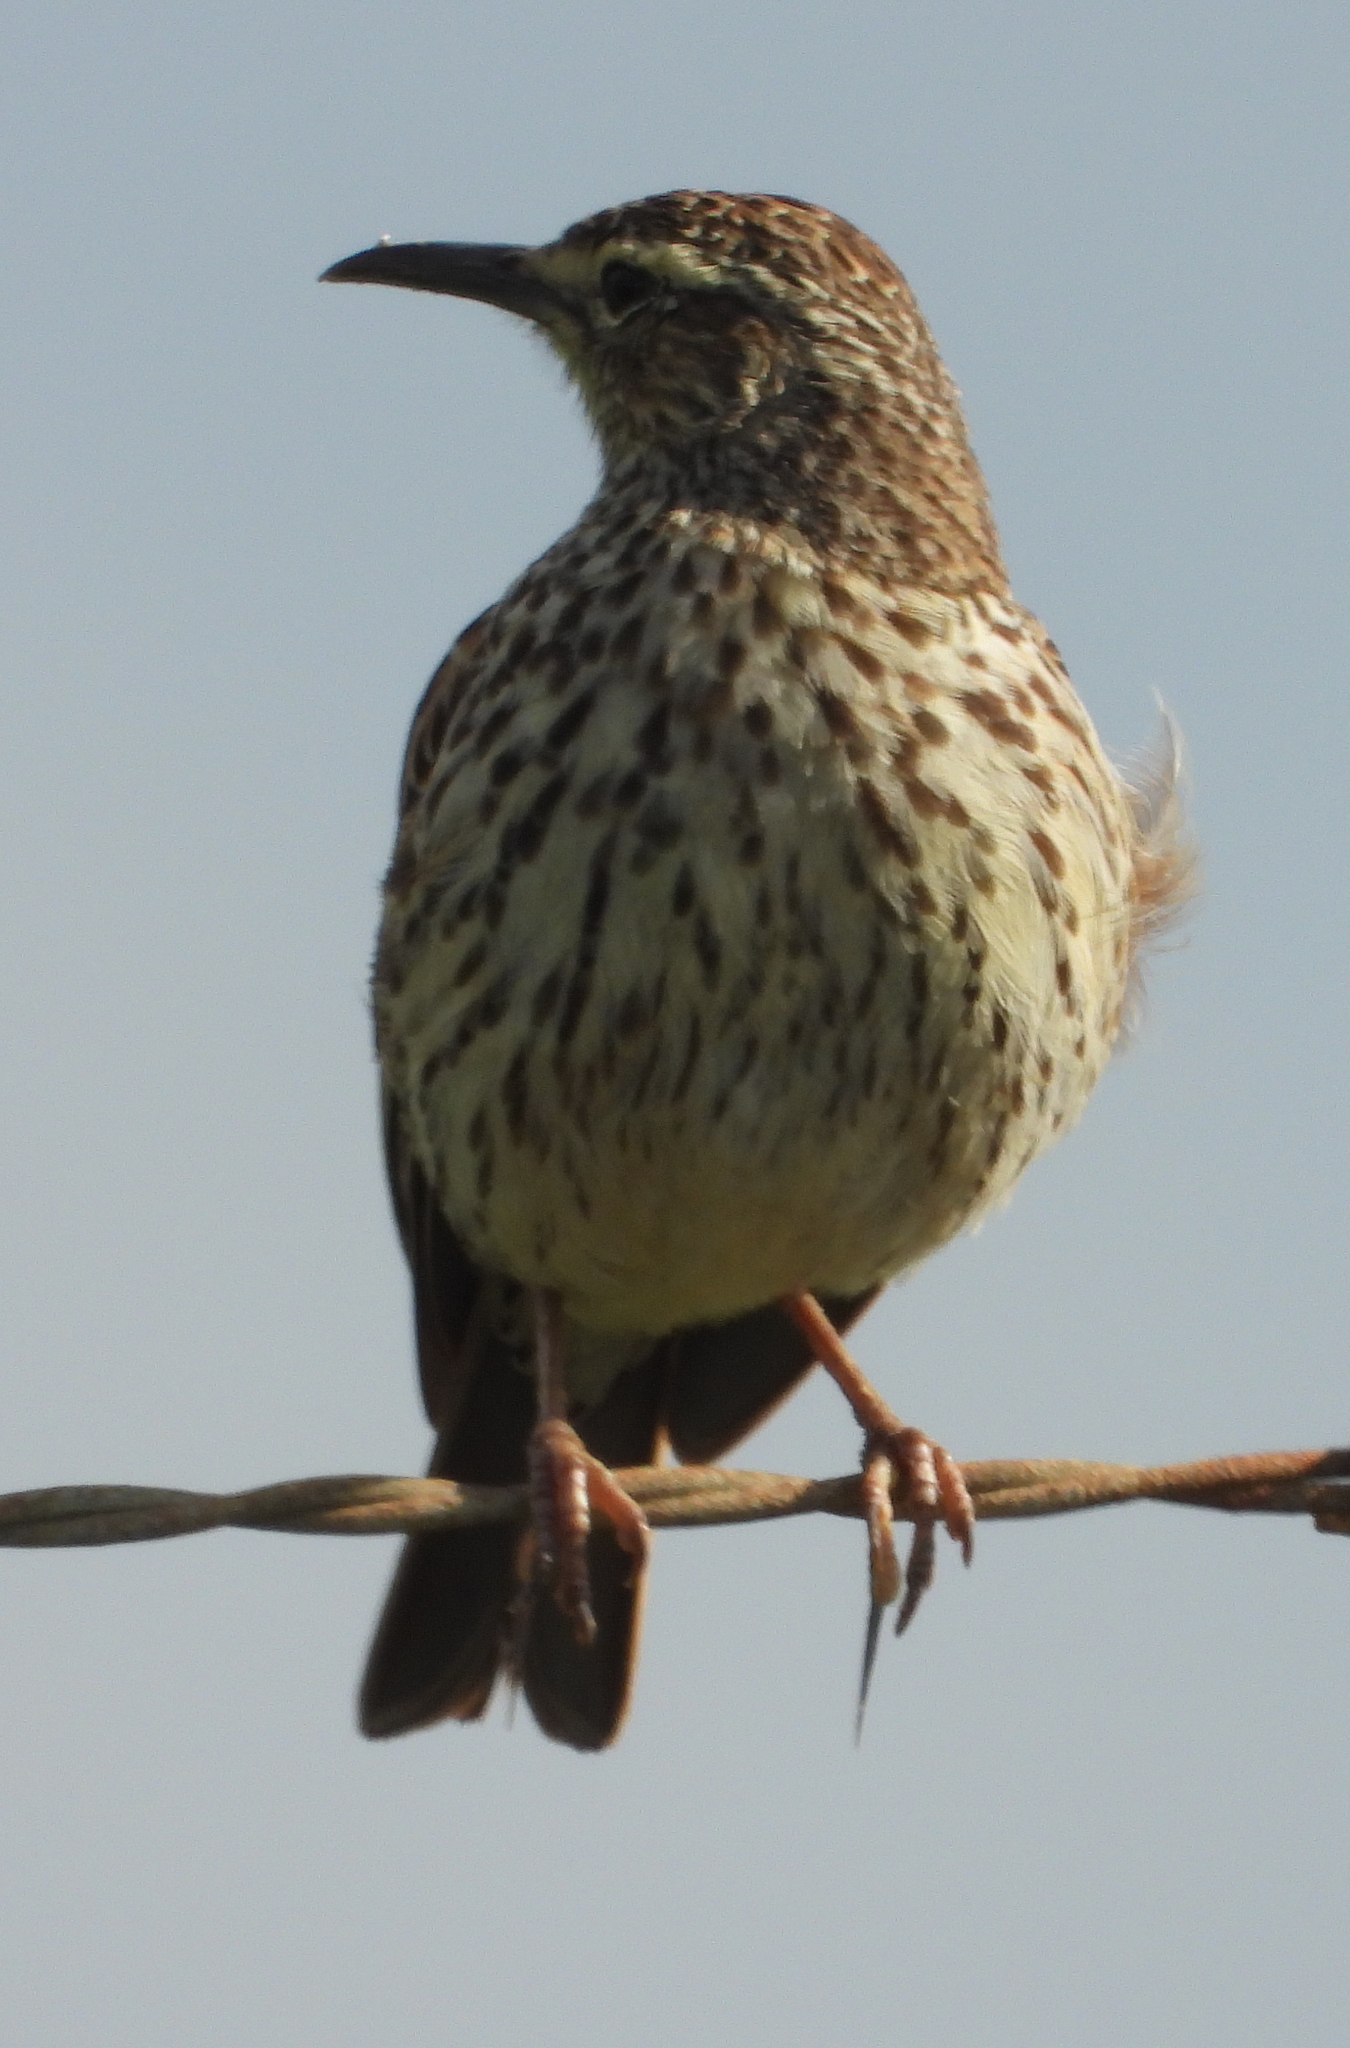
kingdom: Animalia
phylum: Chordata
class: Aves
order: Passeriformes
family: Alaudidae
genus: Certhilauda
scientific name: Certhilauda curvirostris
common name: Cape long-billed lark
